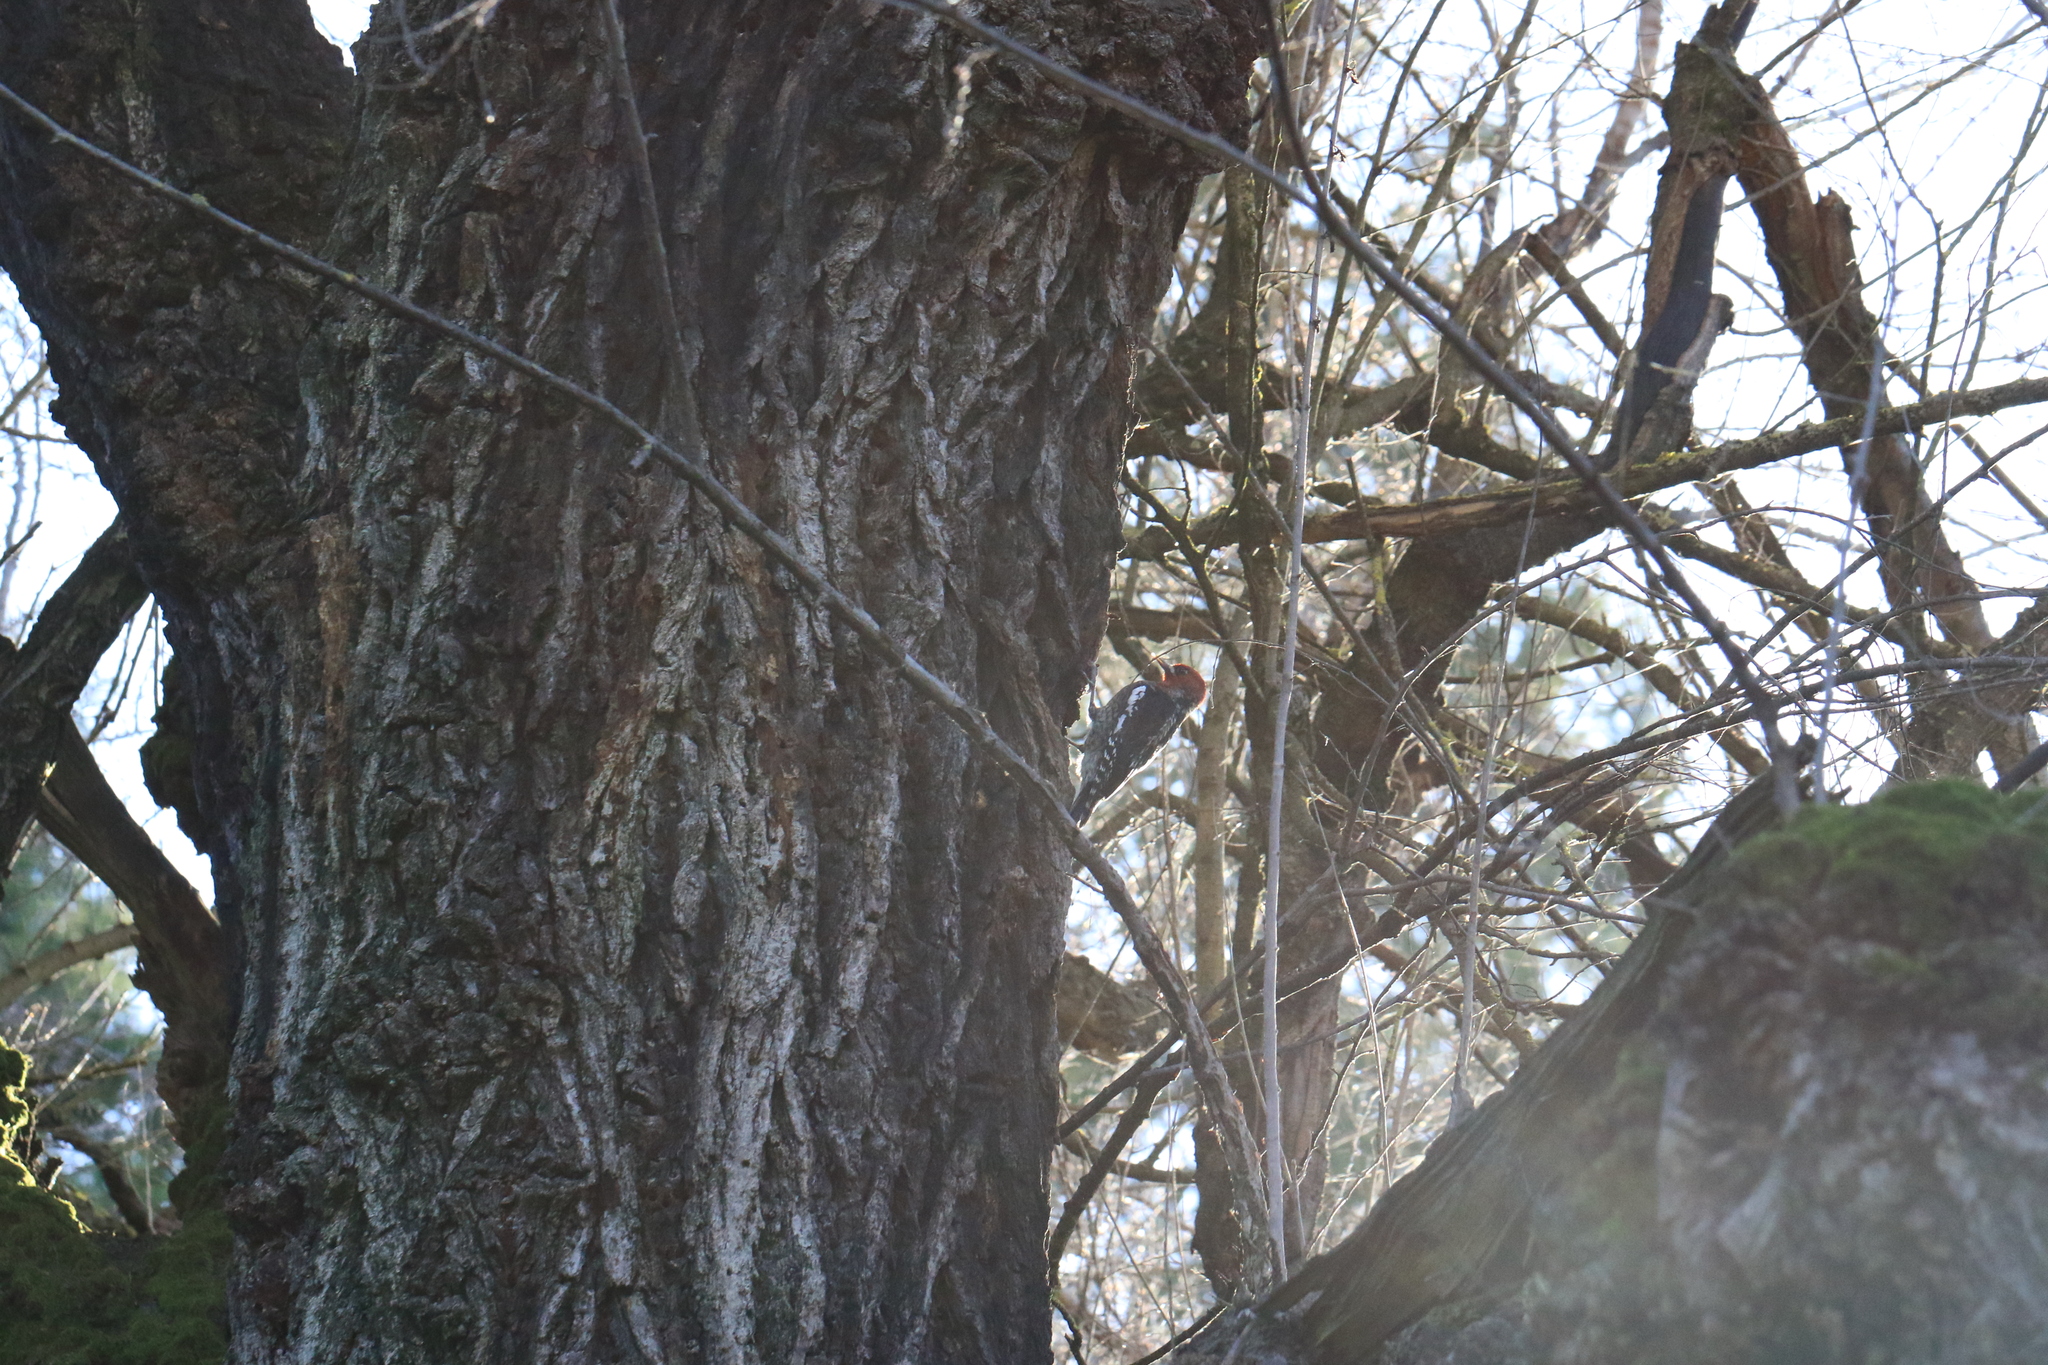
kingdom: Animalia
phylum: Chordata
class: Aves
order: Piciformes
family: Picidae
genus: Sphyrapicus
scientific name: Sphyrapicus ruber
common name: Red-breasted sapsucker
